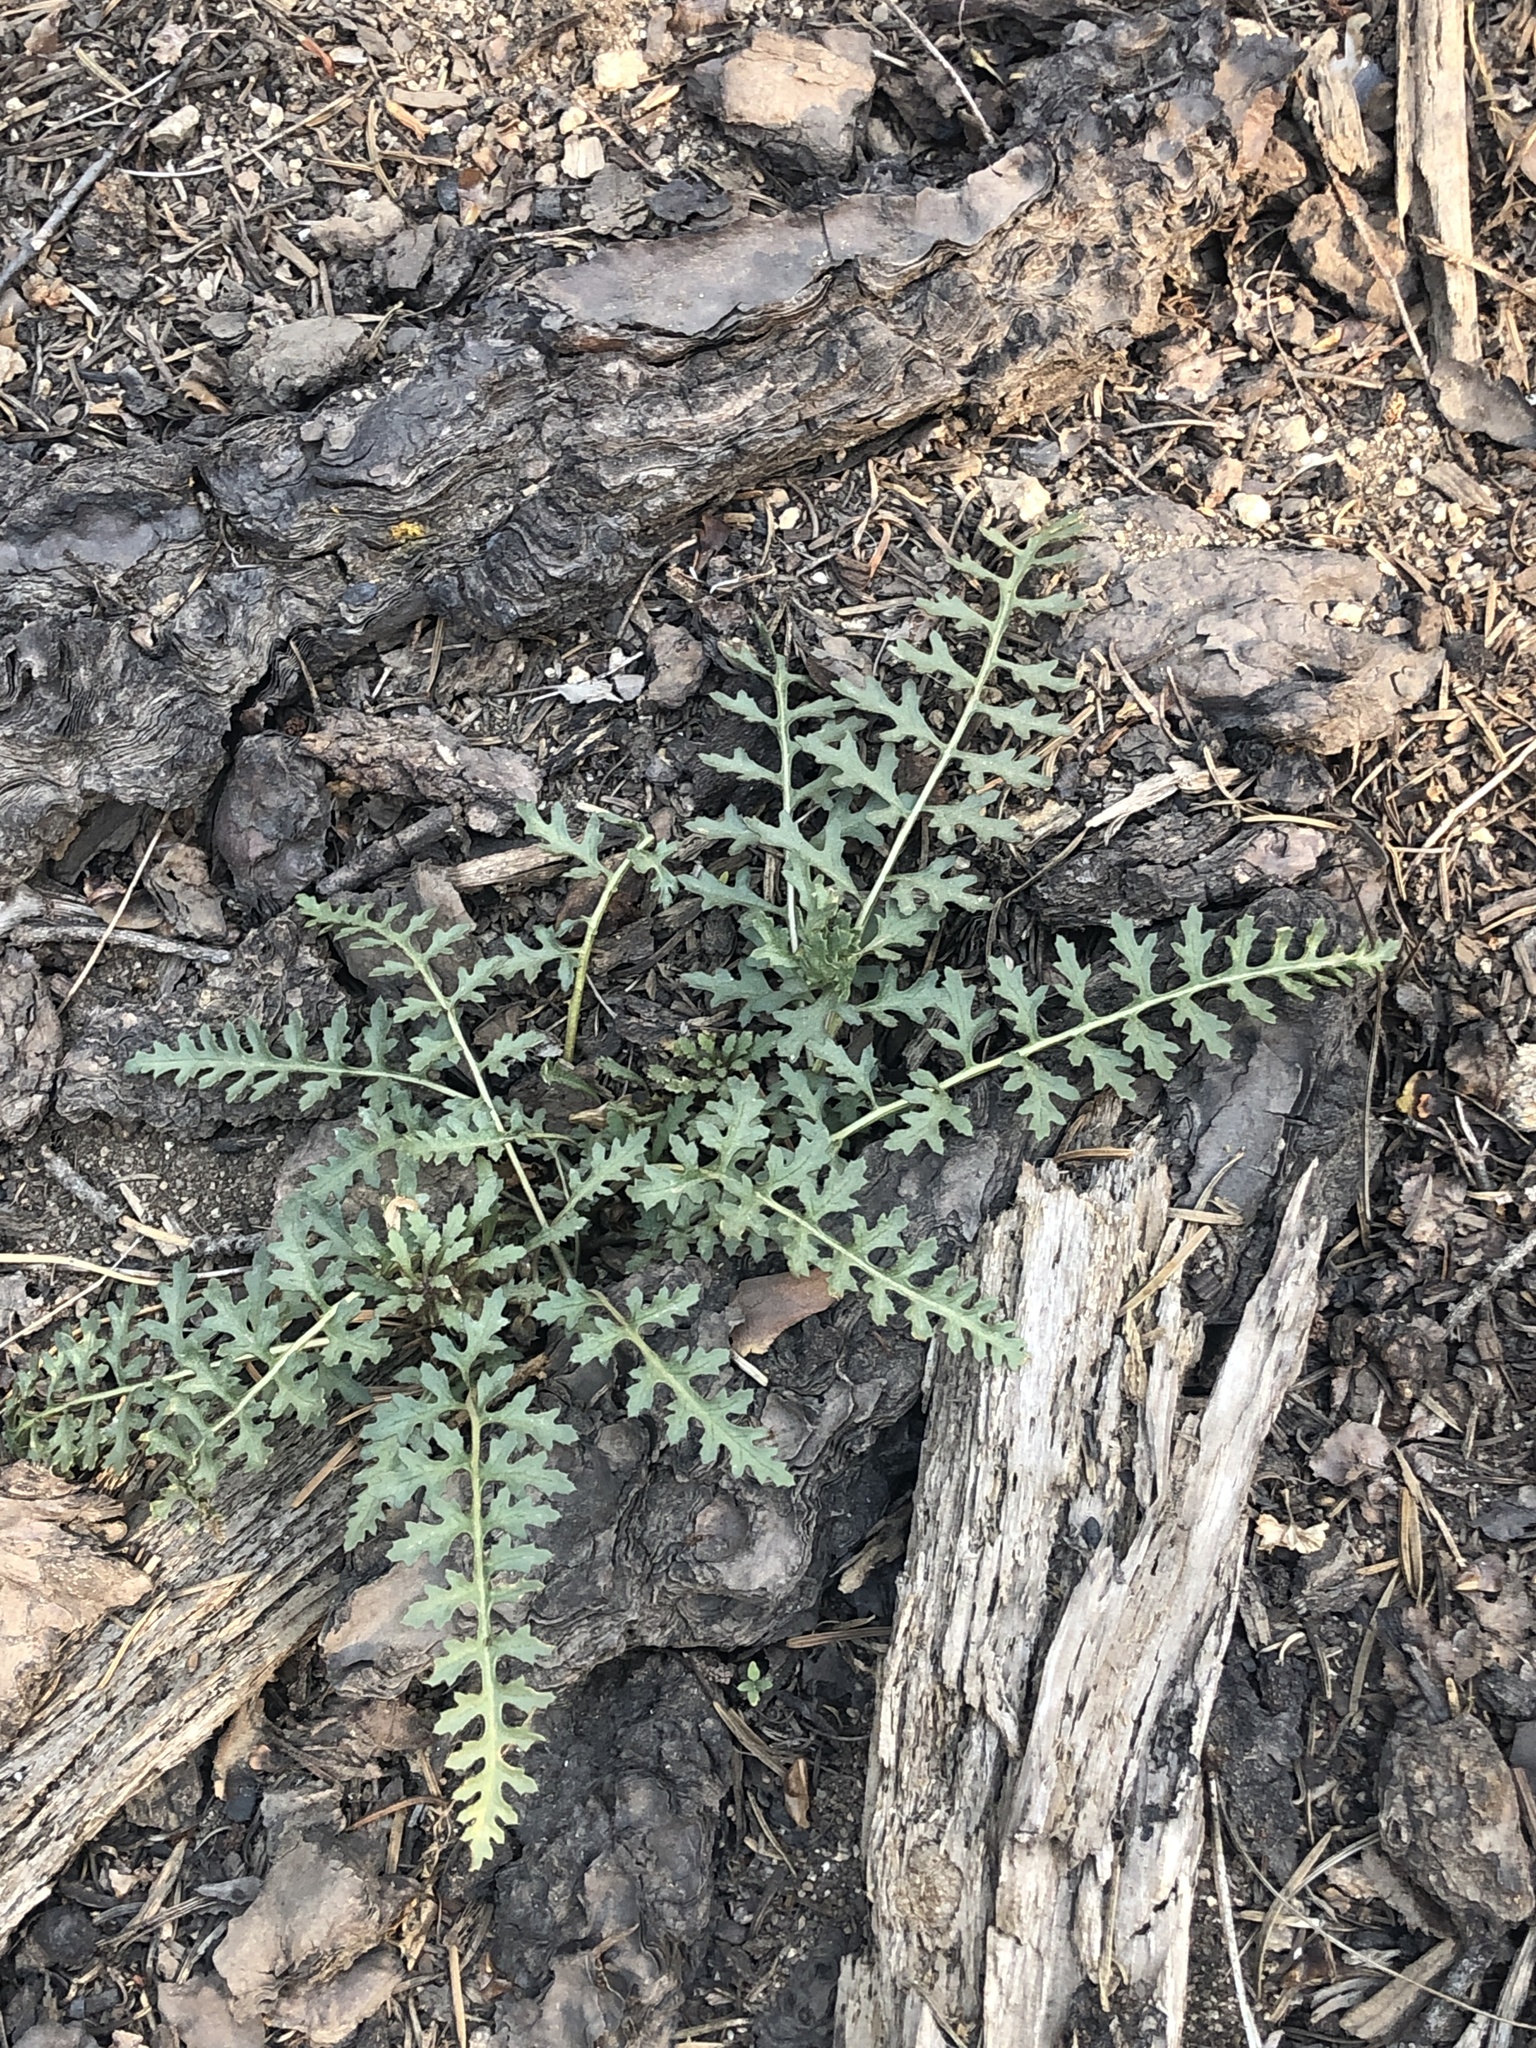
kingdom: Plantae
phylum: Tracheophyta
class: Magnoliopsida
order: Lamiales
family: Orobanchaceae
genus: Pedicularis
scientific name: Pedicularis semibarbata
